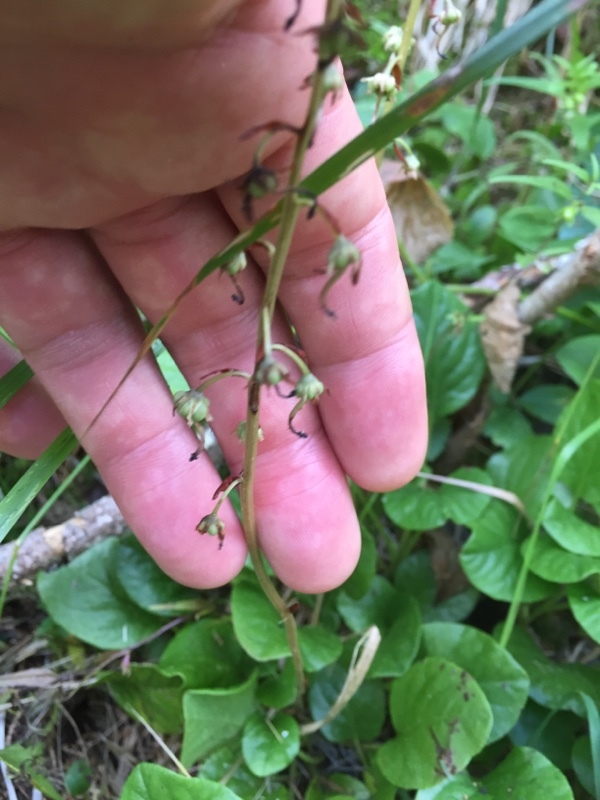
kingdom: Plantae
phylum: Tracheophyta
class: Magnoliopsida
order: Ericales
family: Ericaceae
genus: Pyrola
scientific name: Pyrola rotundifolia
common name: Round-leaved wintergreen
